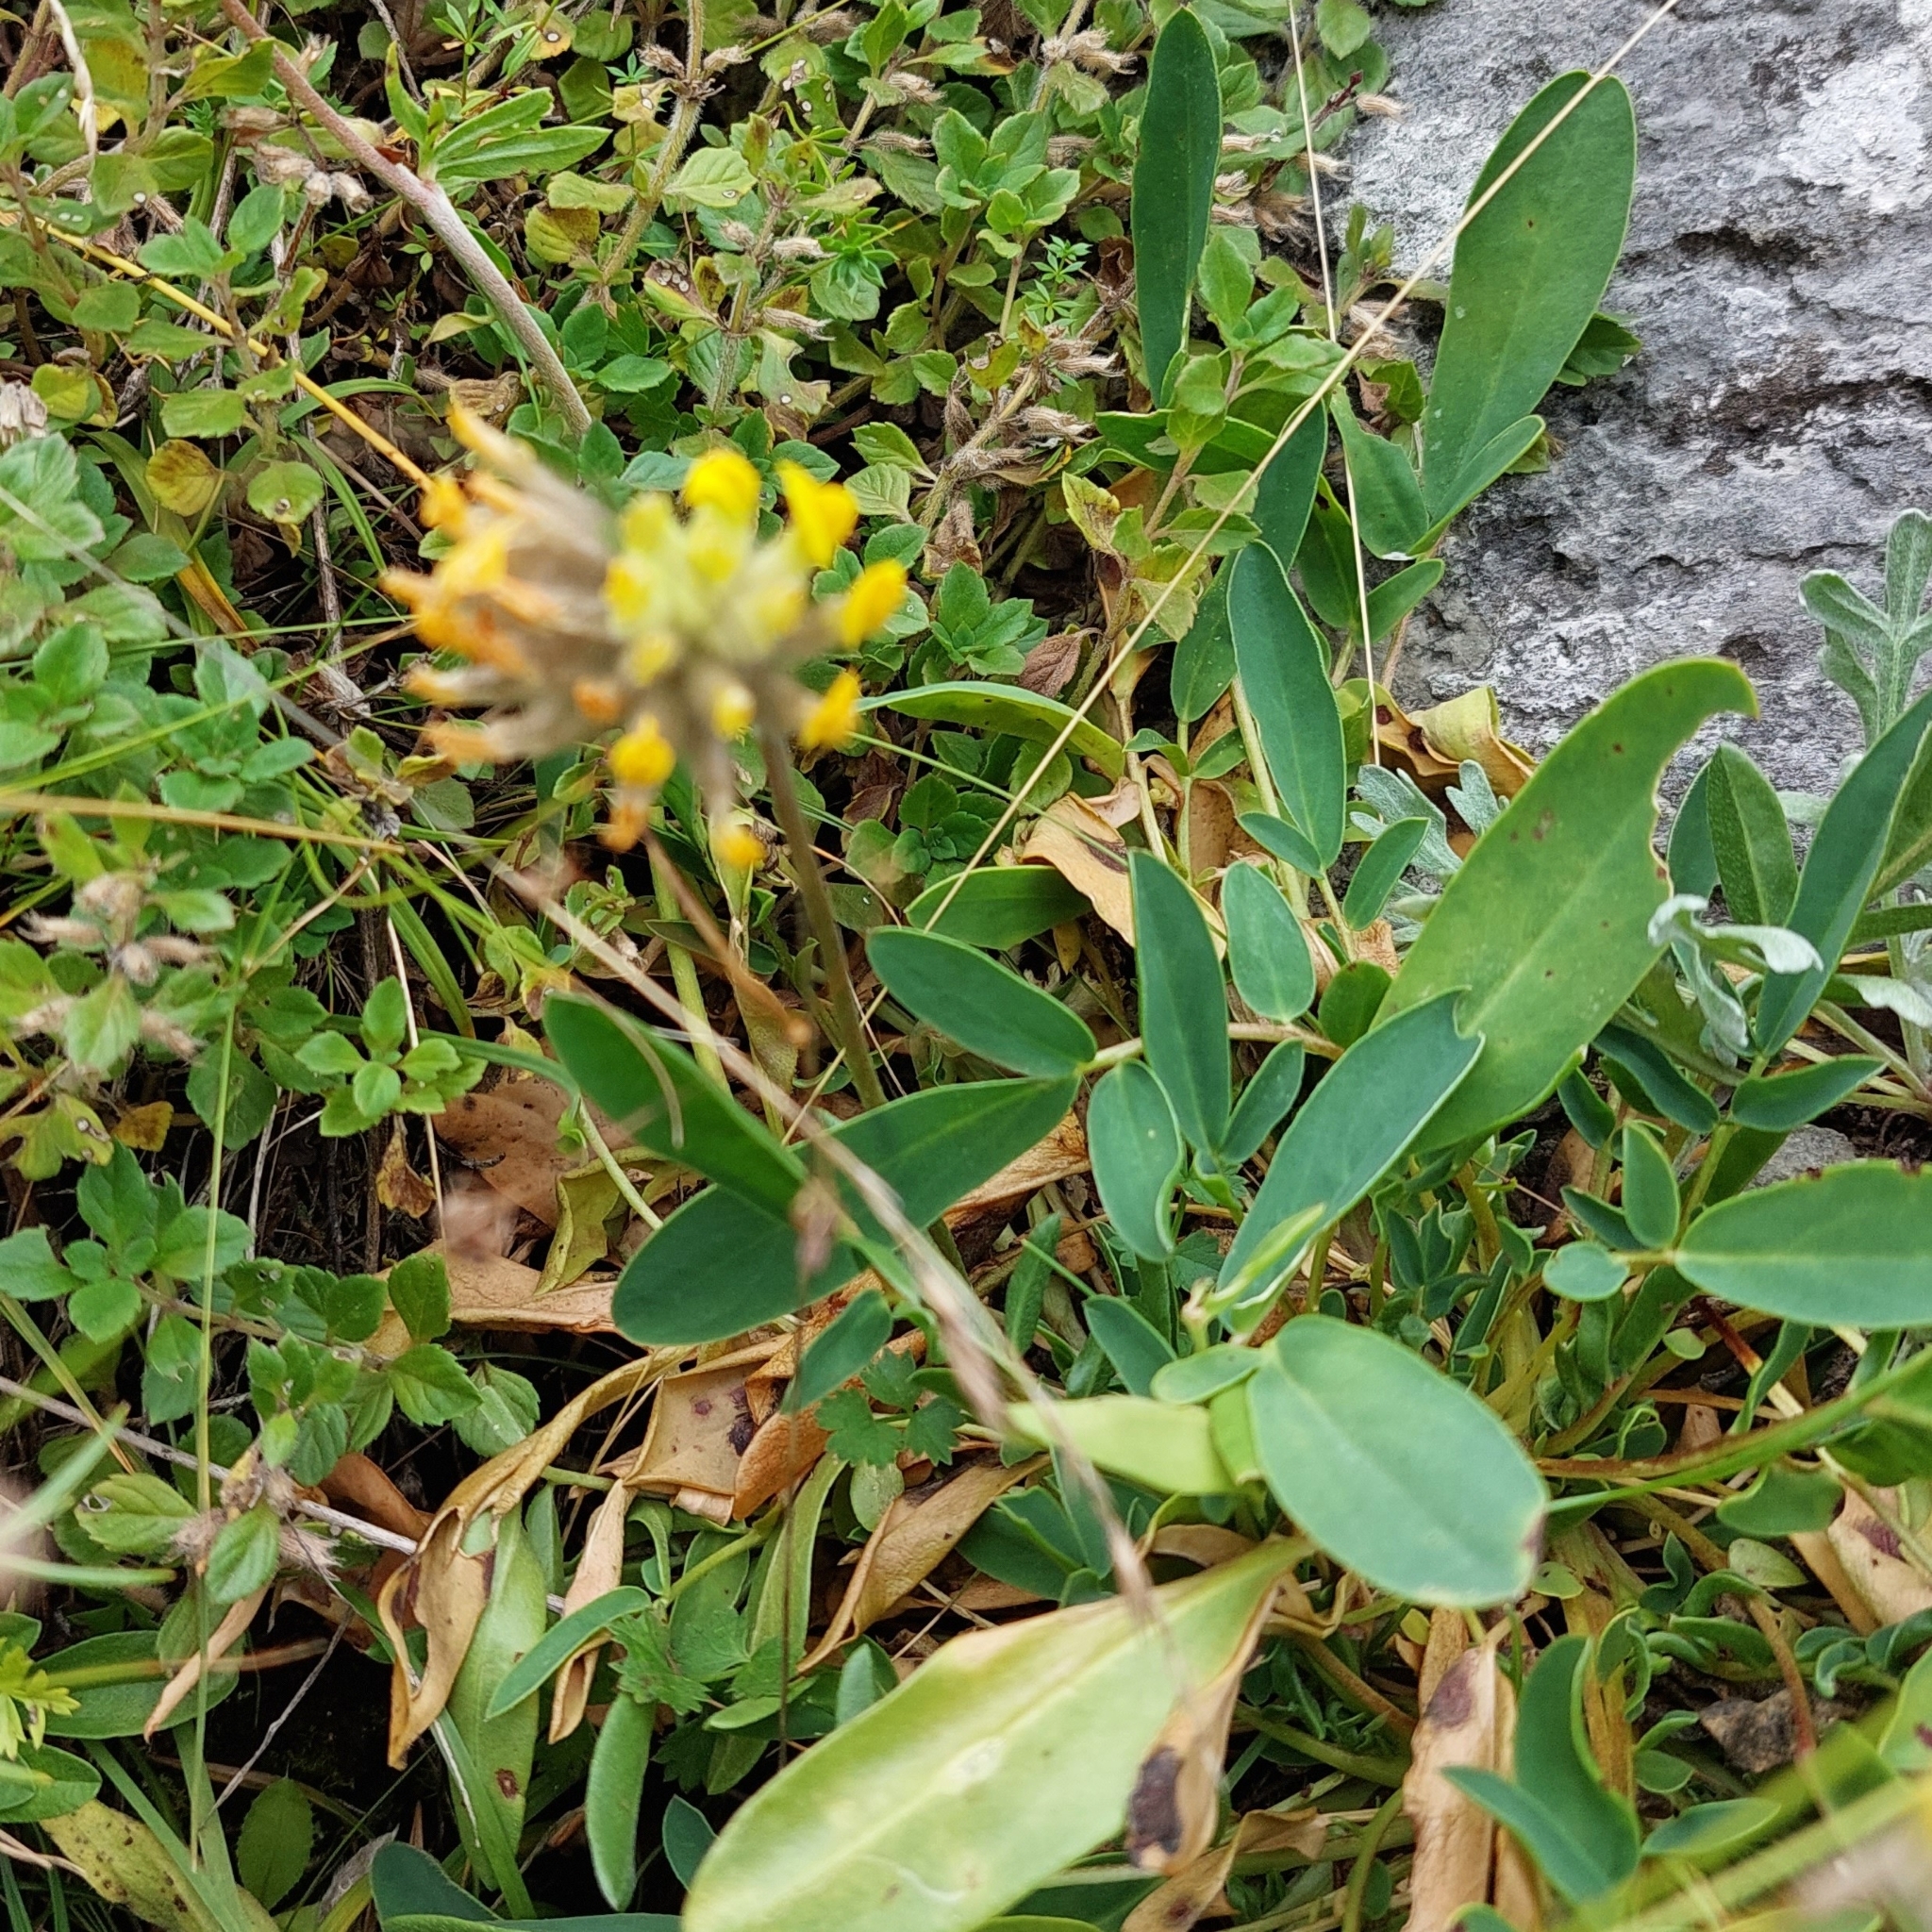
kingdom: Plantae
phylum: Tracheophyta
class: Magnoliopsida
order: Fabales
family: Fabaceae
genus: Anthyllis
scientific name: Anthyllis vulneraria
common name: Kidney vetch
